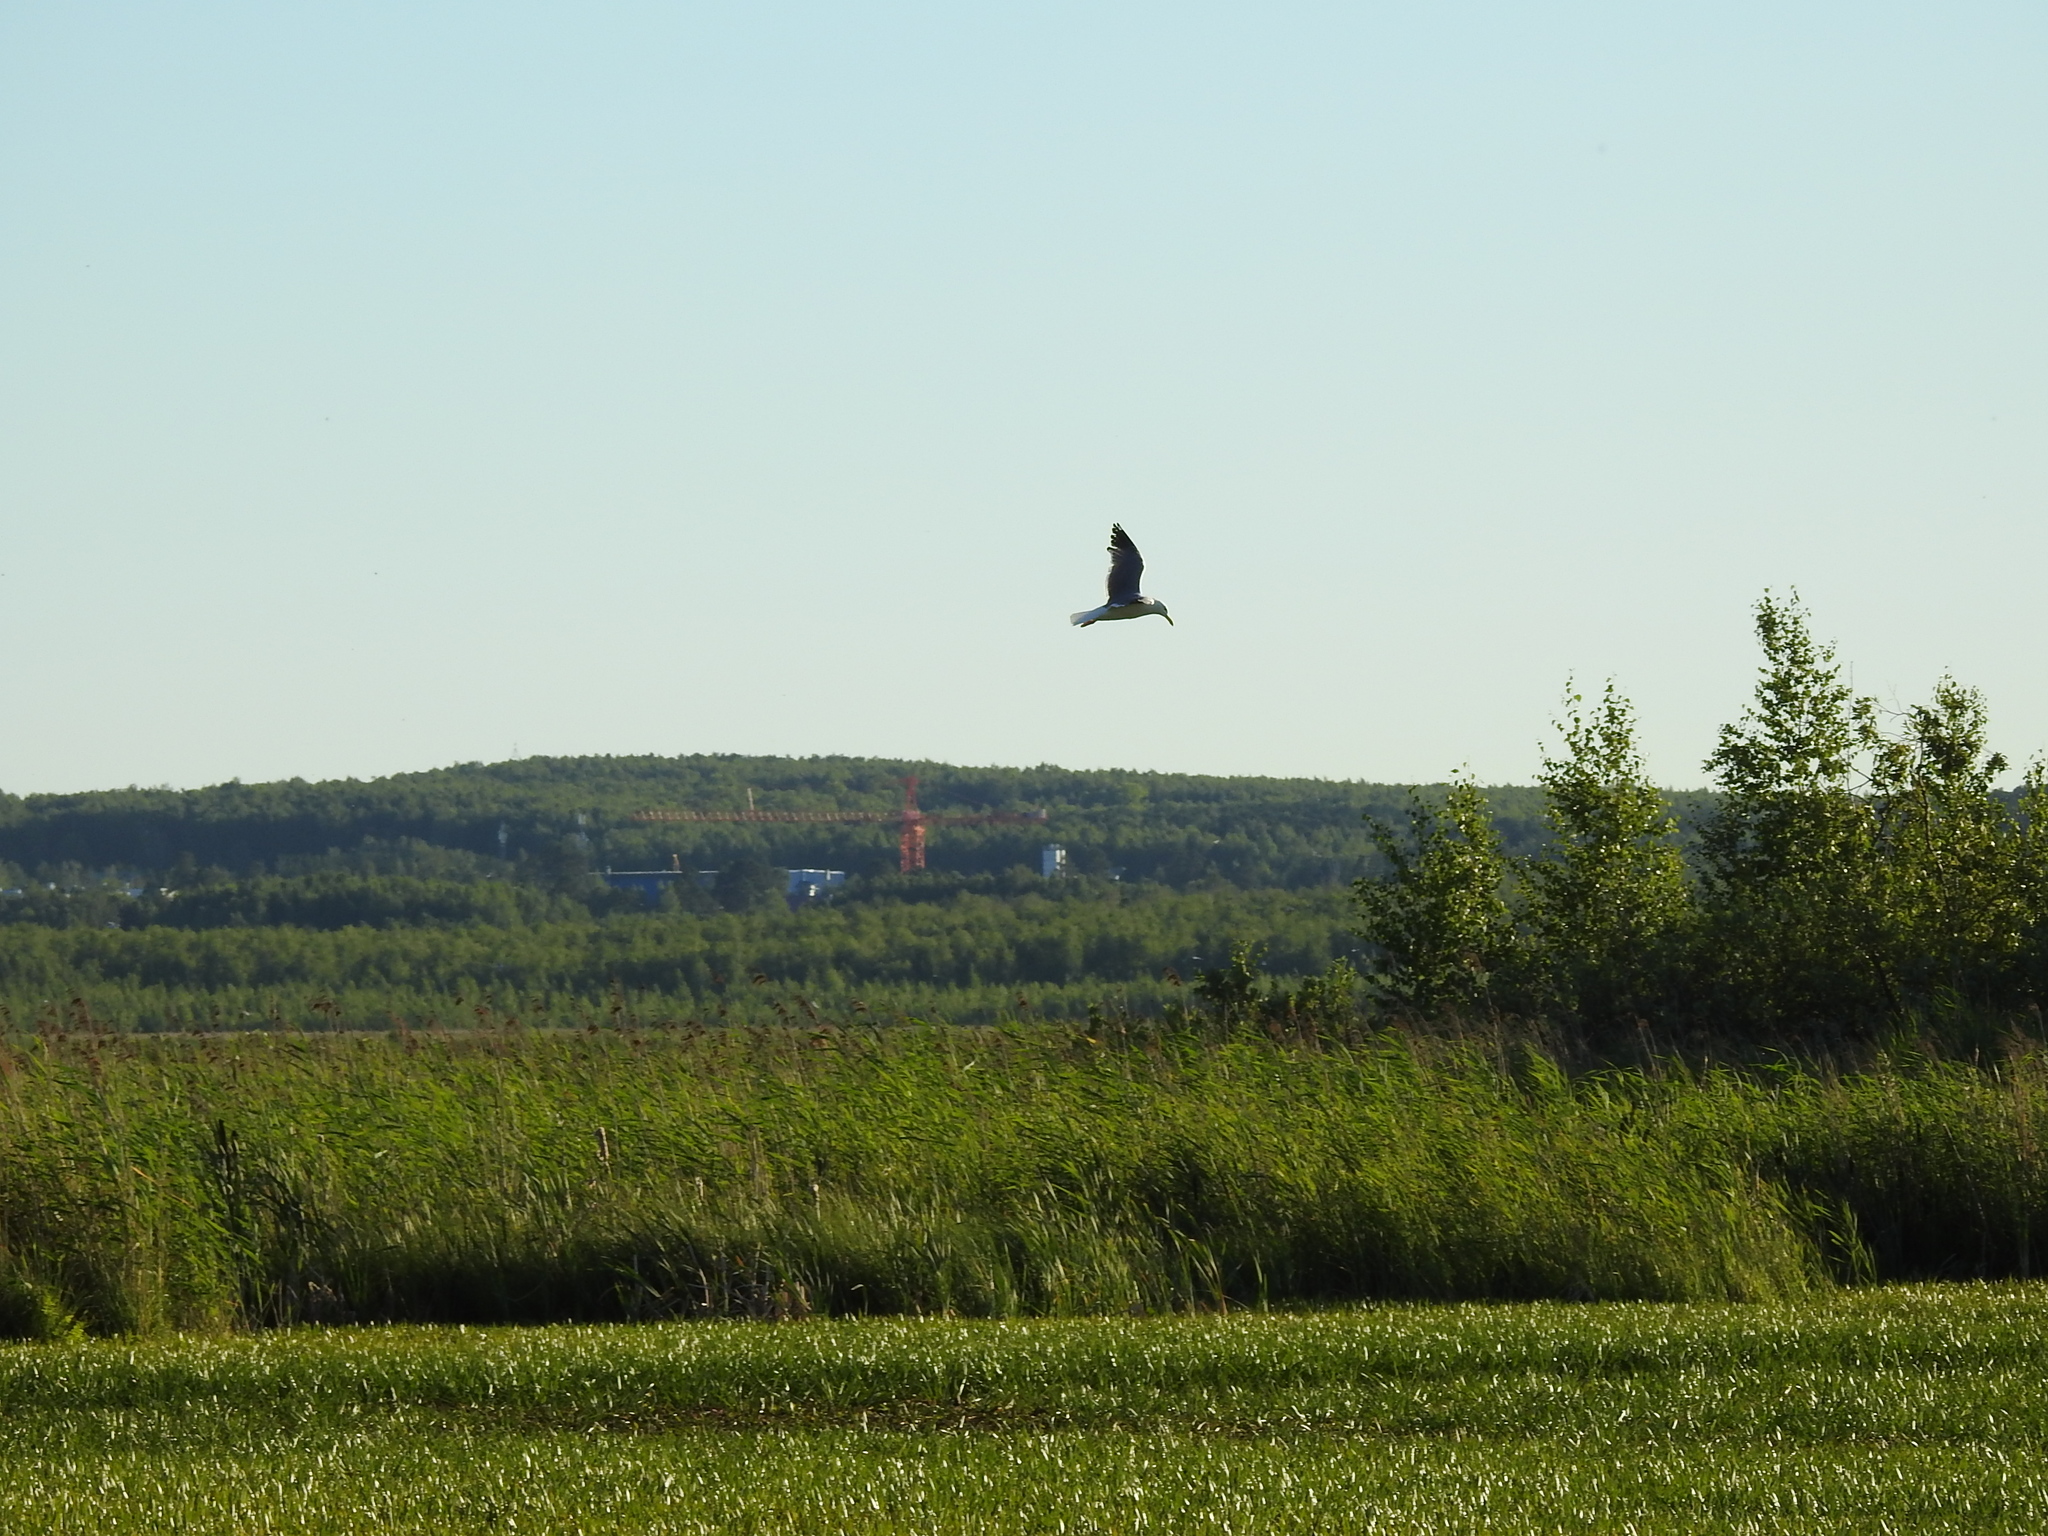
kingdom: Animalia
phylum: Chordata
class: Aves
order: Charadriiformes
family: Laridae
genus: Larus
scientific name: Larus fuscus
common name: Lesser black-backed gull
